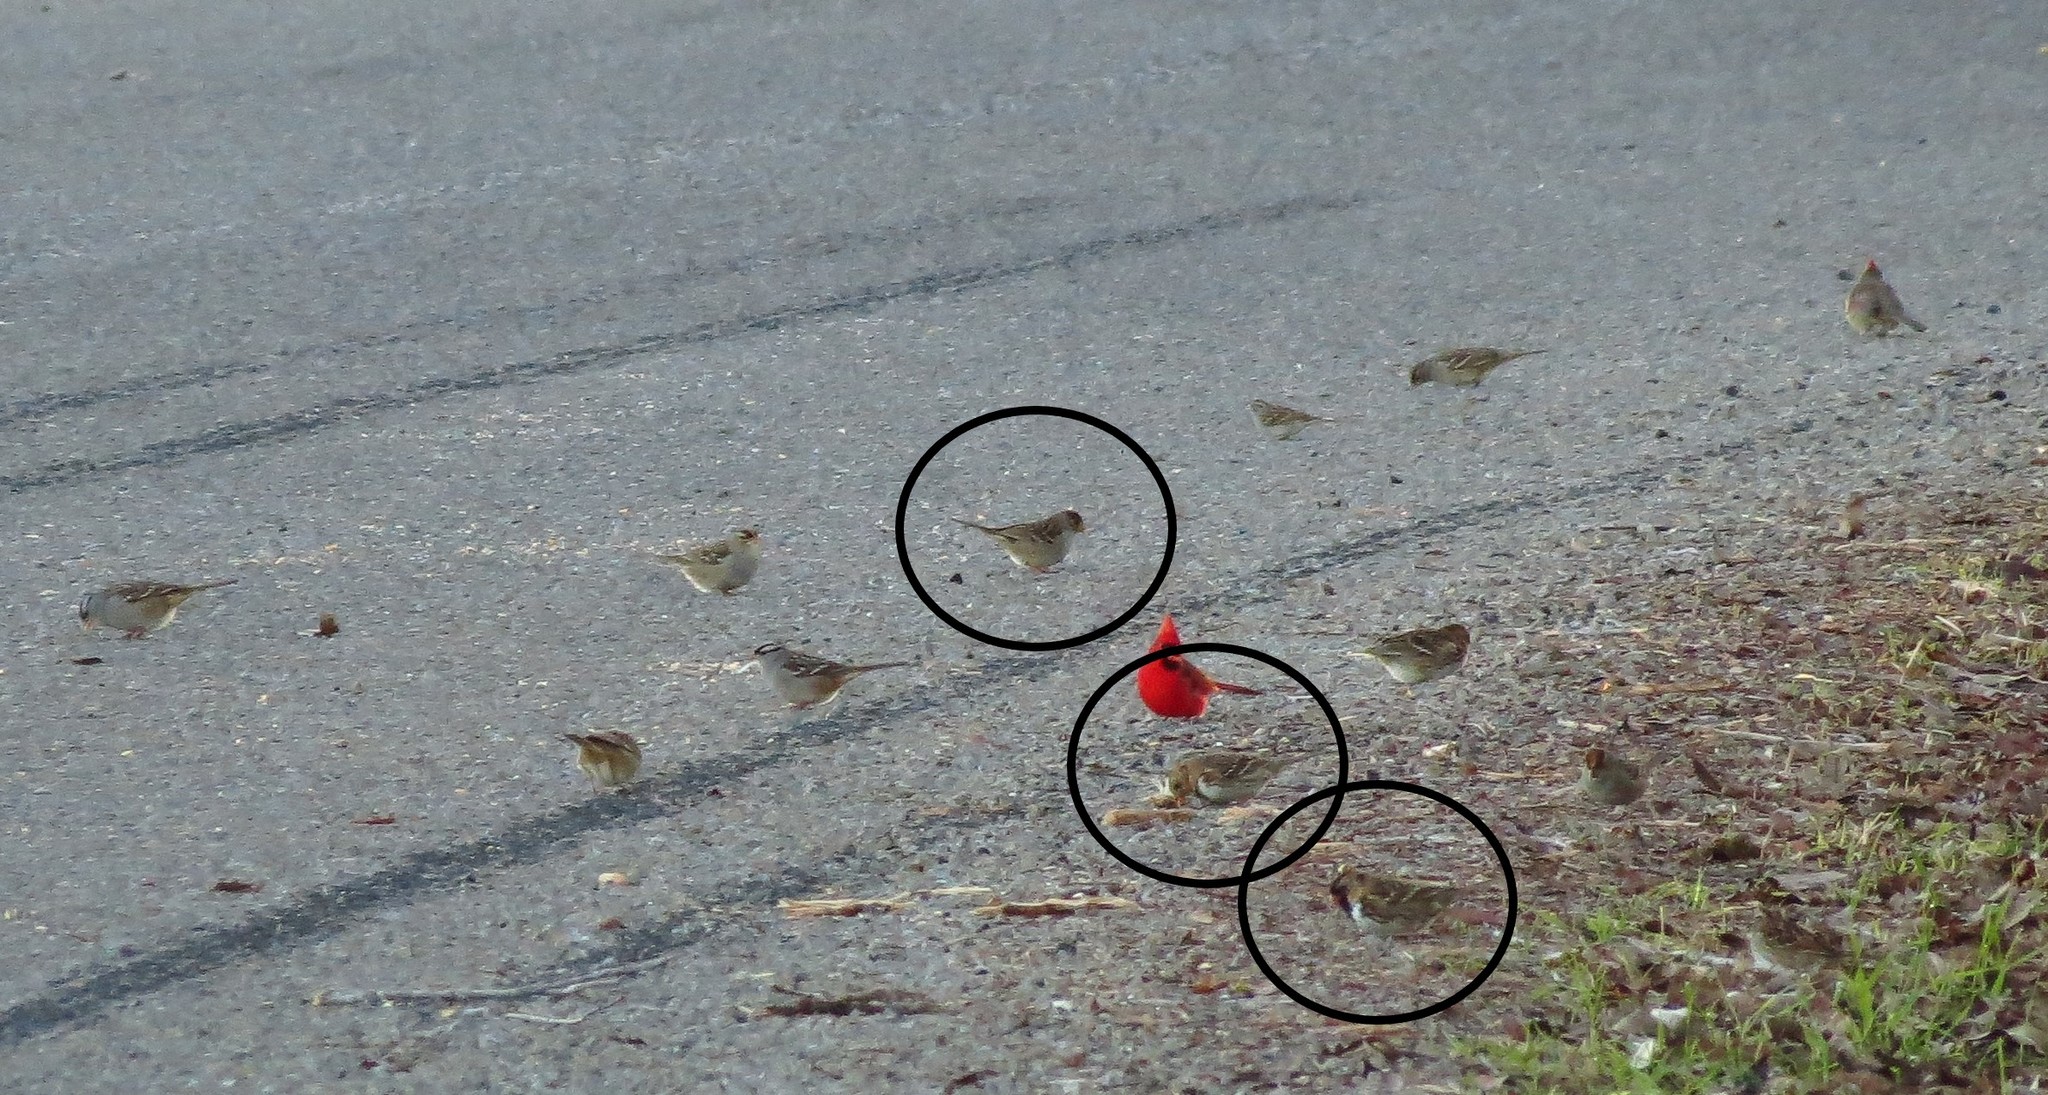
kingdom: Animalia
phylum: Chordata
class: Aves
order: Passeriformes
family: Passerellidae
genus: Zonotrichia
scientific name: Zonotrichia querula
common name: Harris's sparrow
